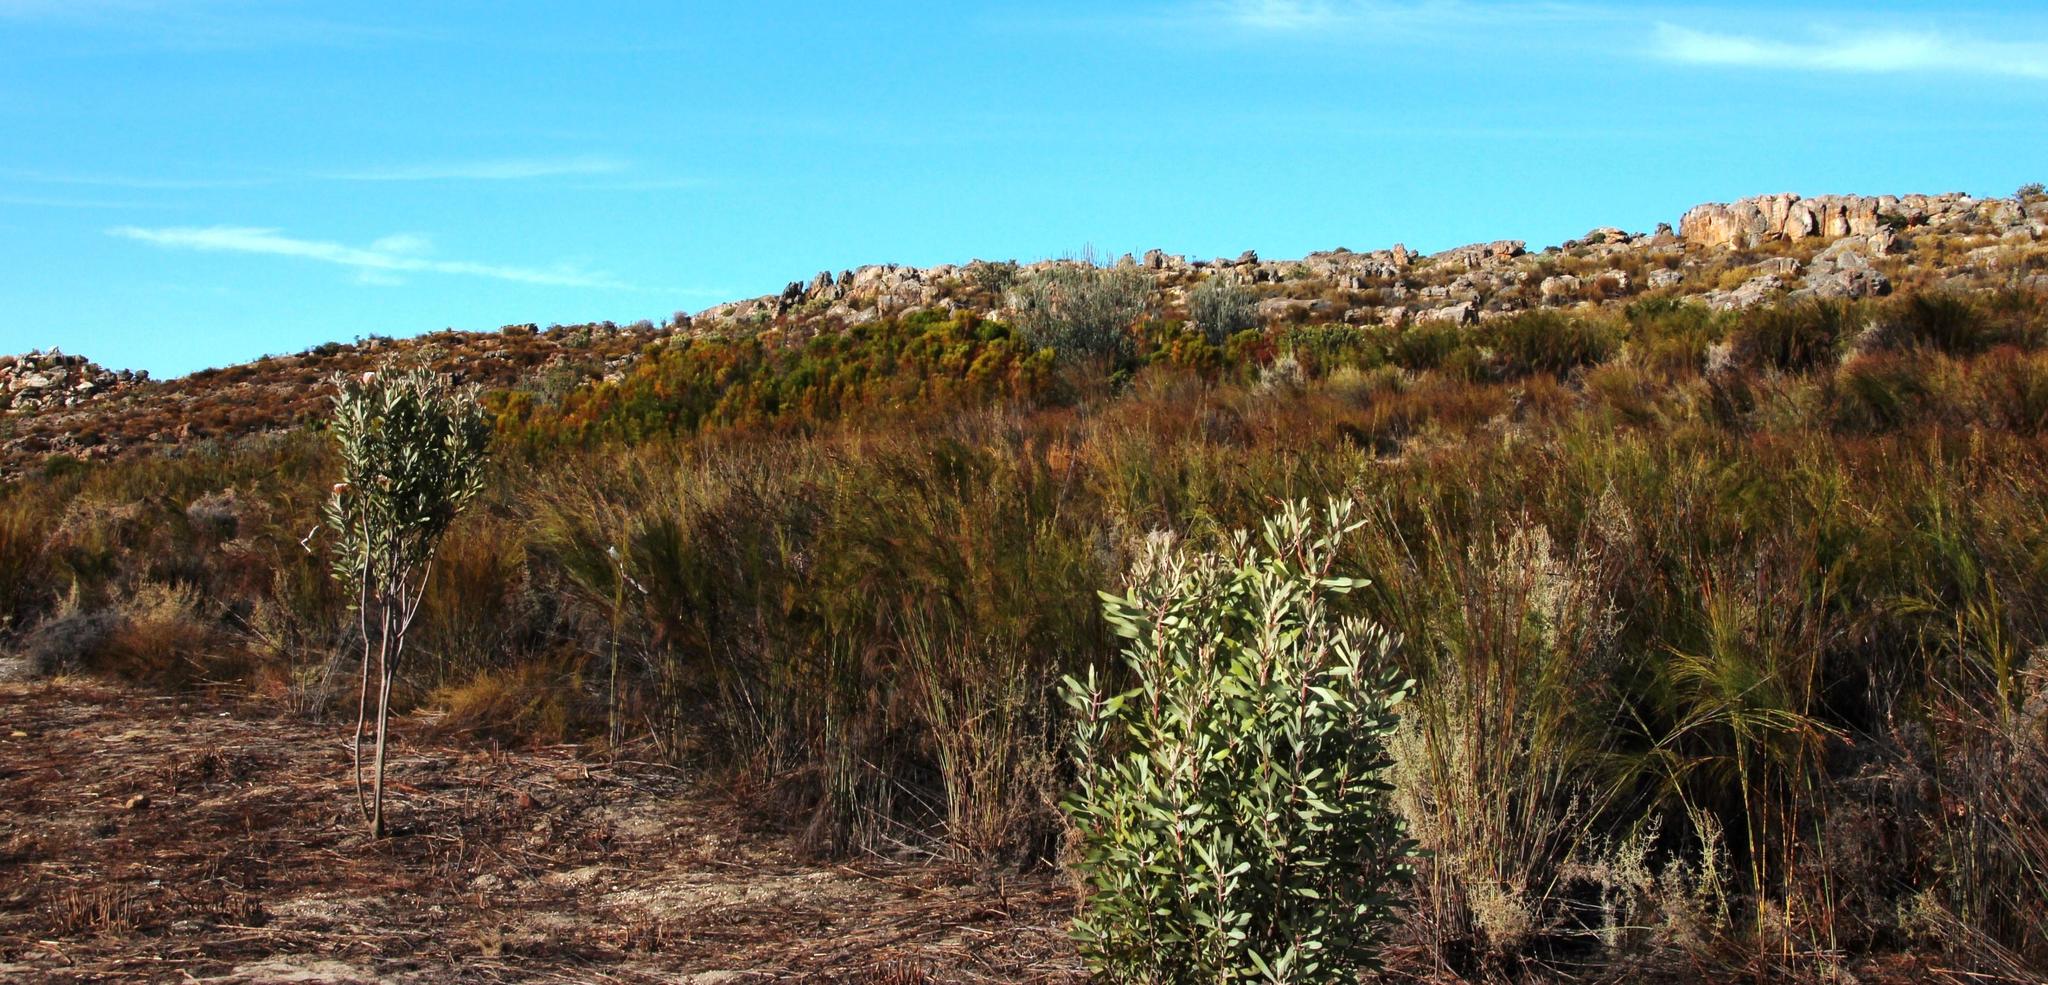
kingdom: Plantae
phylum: Tracheophyta
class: Magnoliopsida
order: Proteales
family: Proteaceae
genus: Protea
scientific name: Protea laurifolia
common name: Grey-leaf sugarbsh
